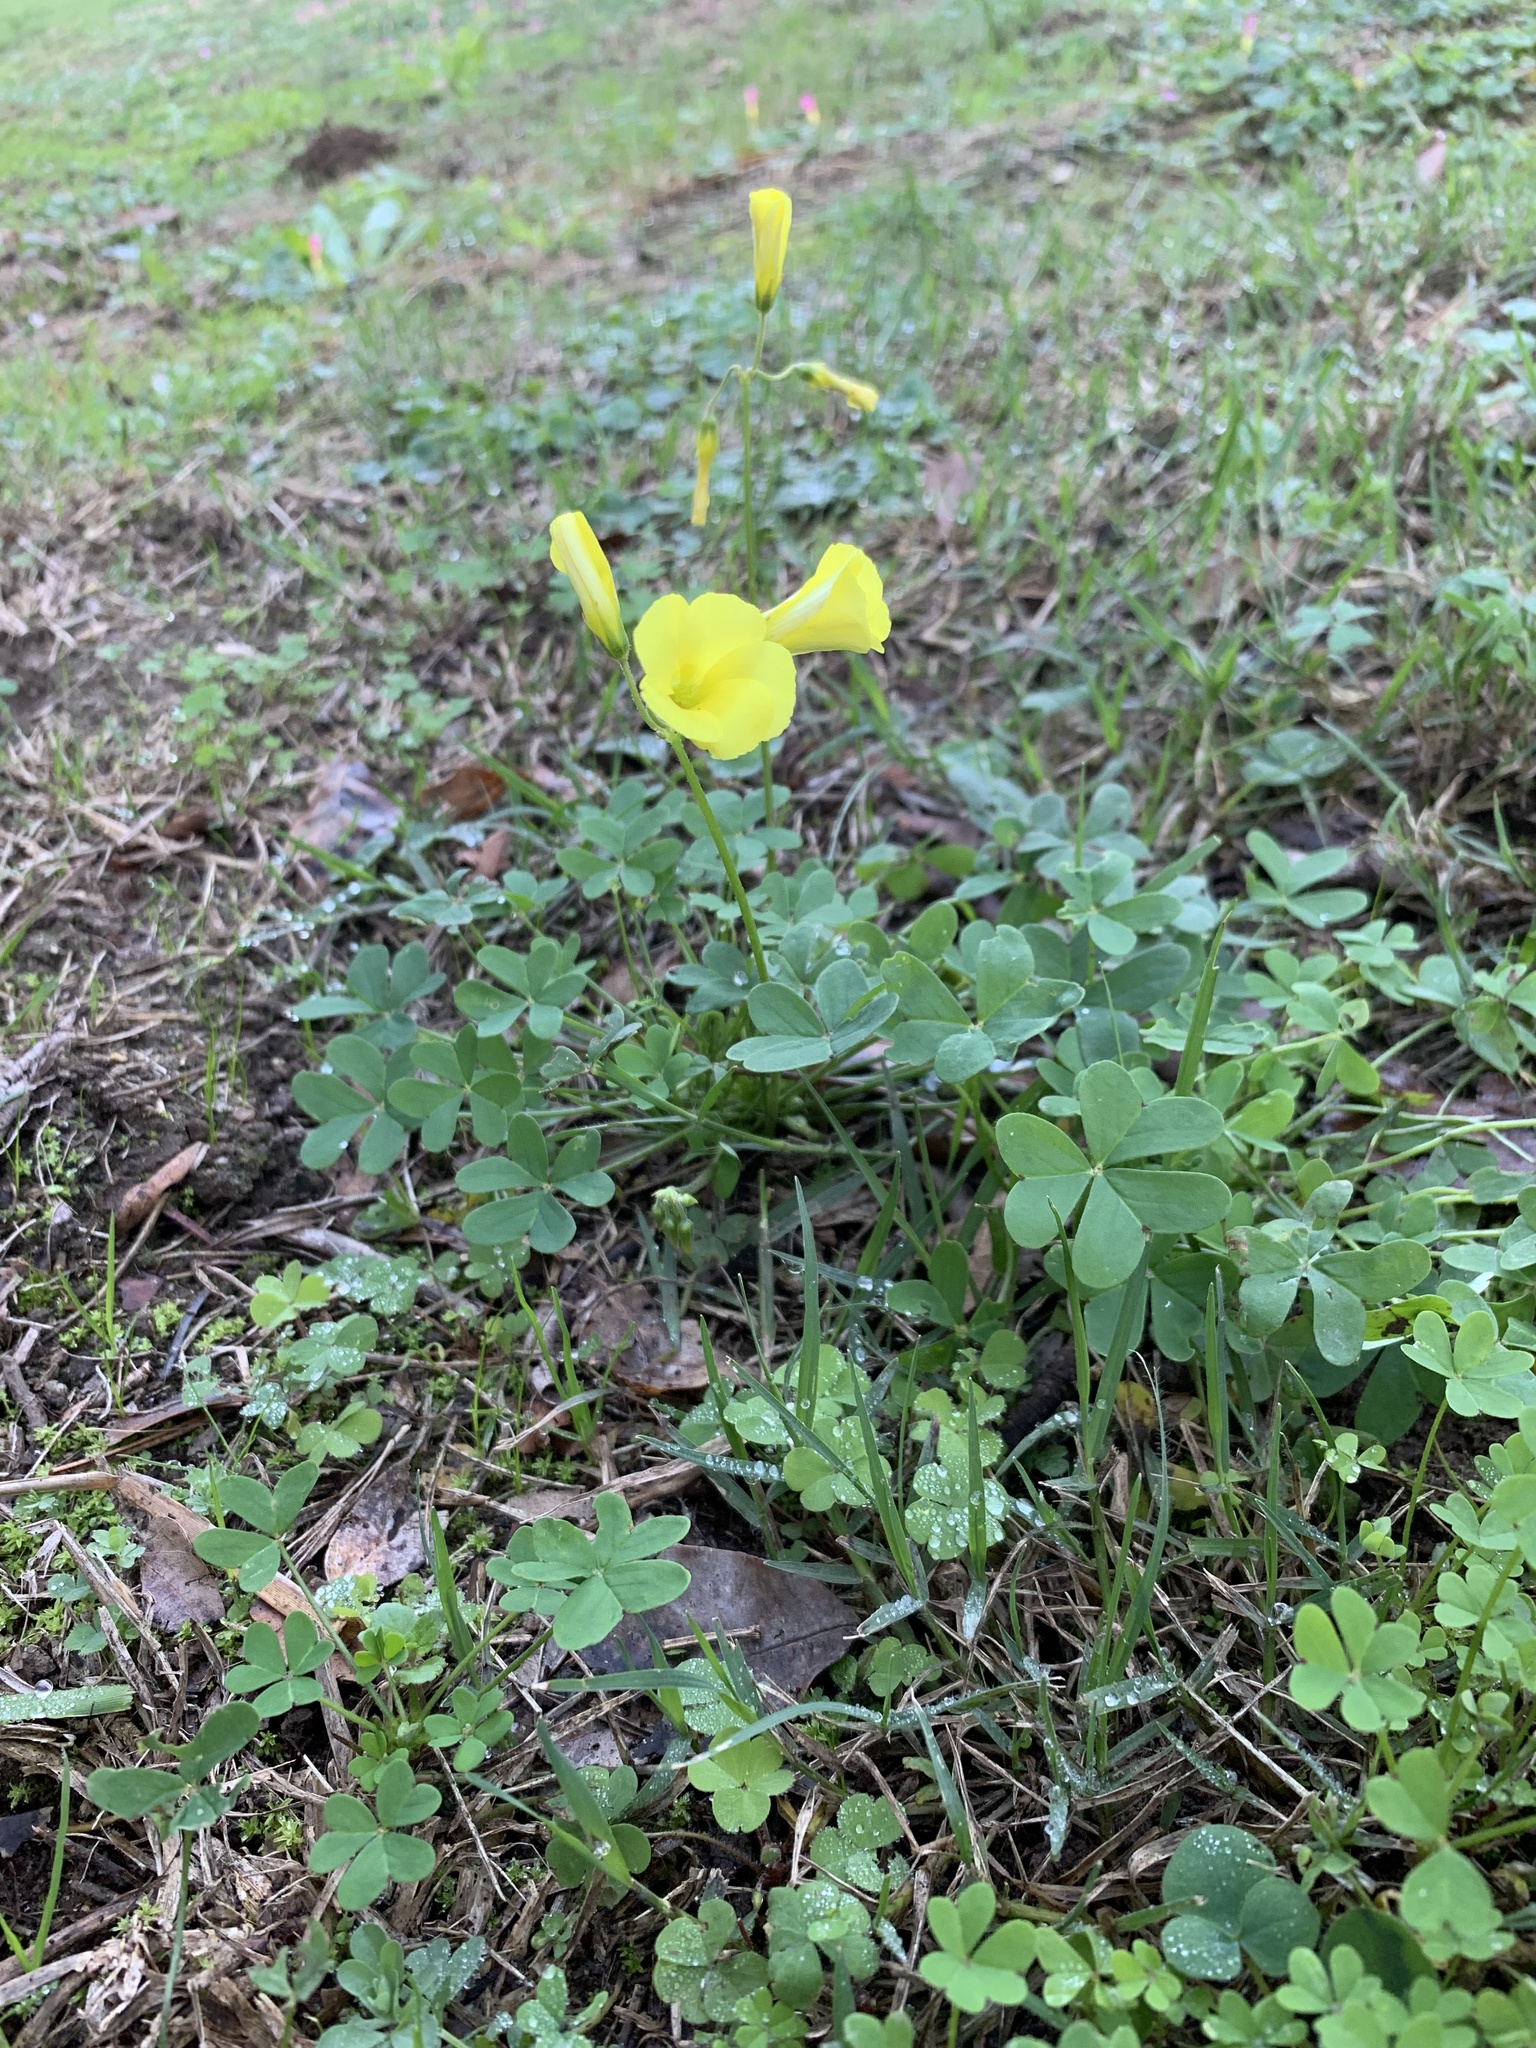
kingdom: Plantae
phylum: Tracheophyta
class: Magnoliopsida
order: Oxalidales
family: Oxalidaceae
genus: Oxalis
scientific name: Oxalis pes-caprae
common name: Bermuda-buttercup
